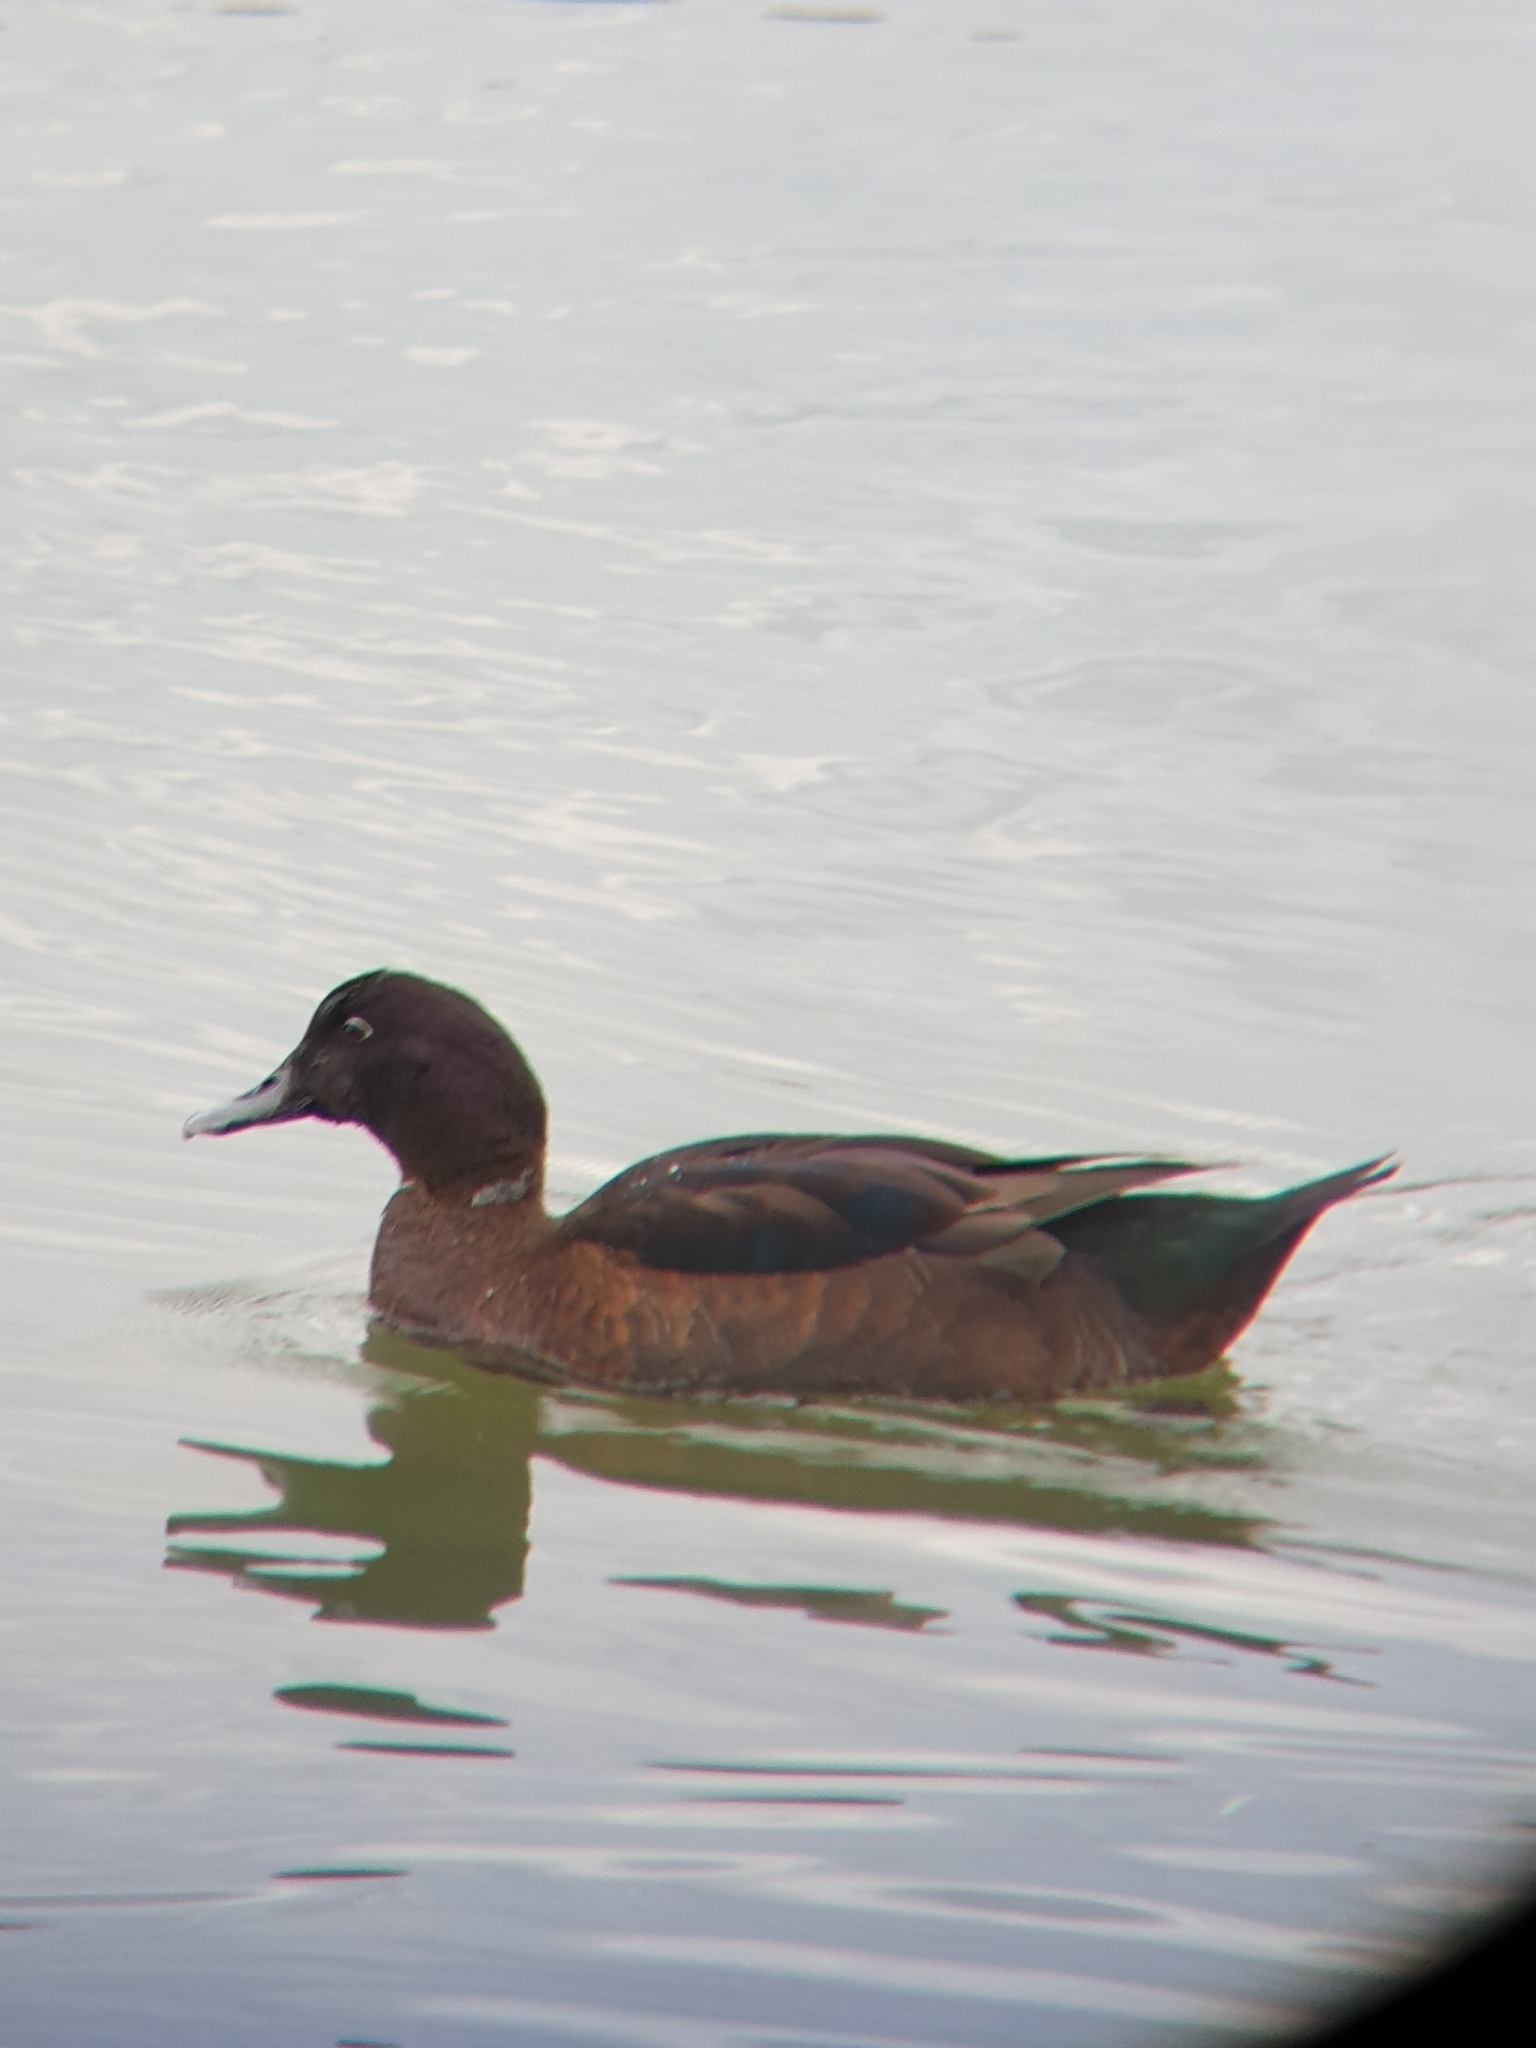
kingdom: Animalia
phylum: Chordata
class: Aves
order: Anseriformes
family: Anatidae
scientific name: Anatidae
